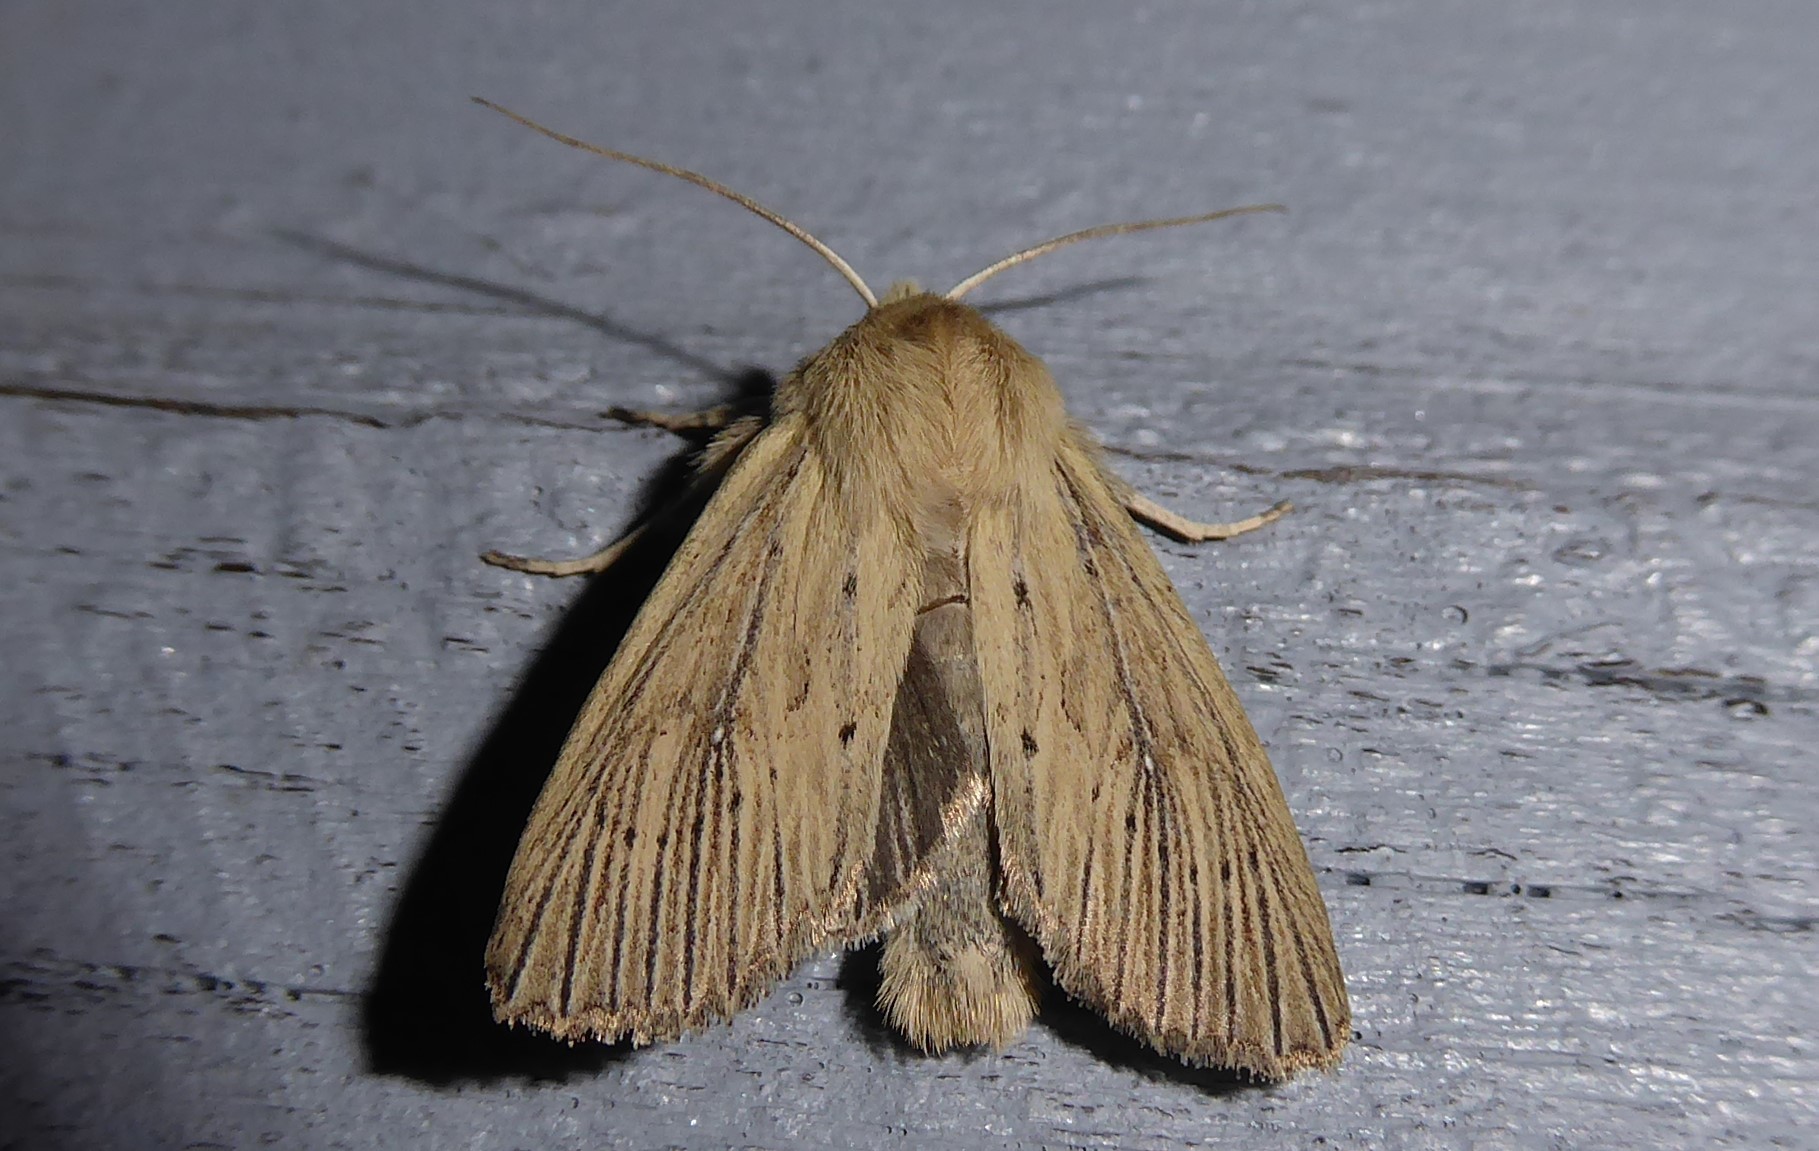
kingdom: Animalia
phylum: Arthropoda
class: Insecta
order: Lepidoptera
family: Noctuidae
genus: Ichneutica
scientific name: Ichneutica arotis
